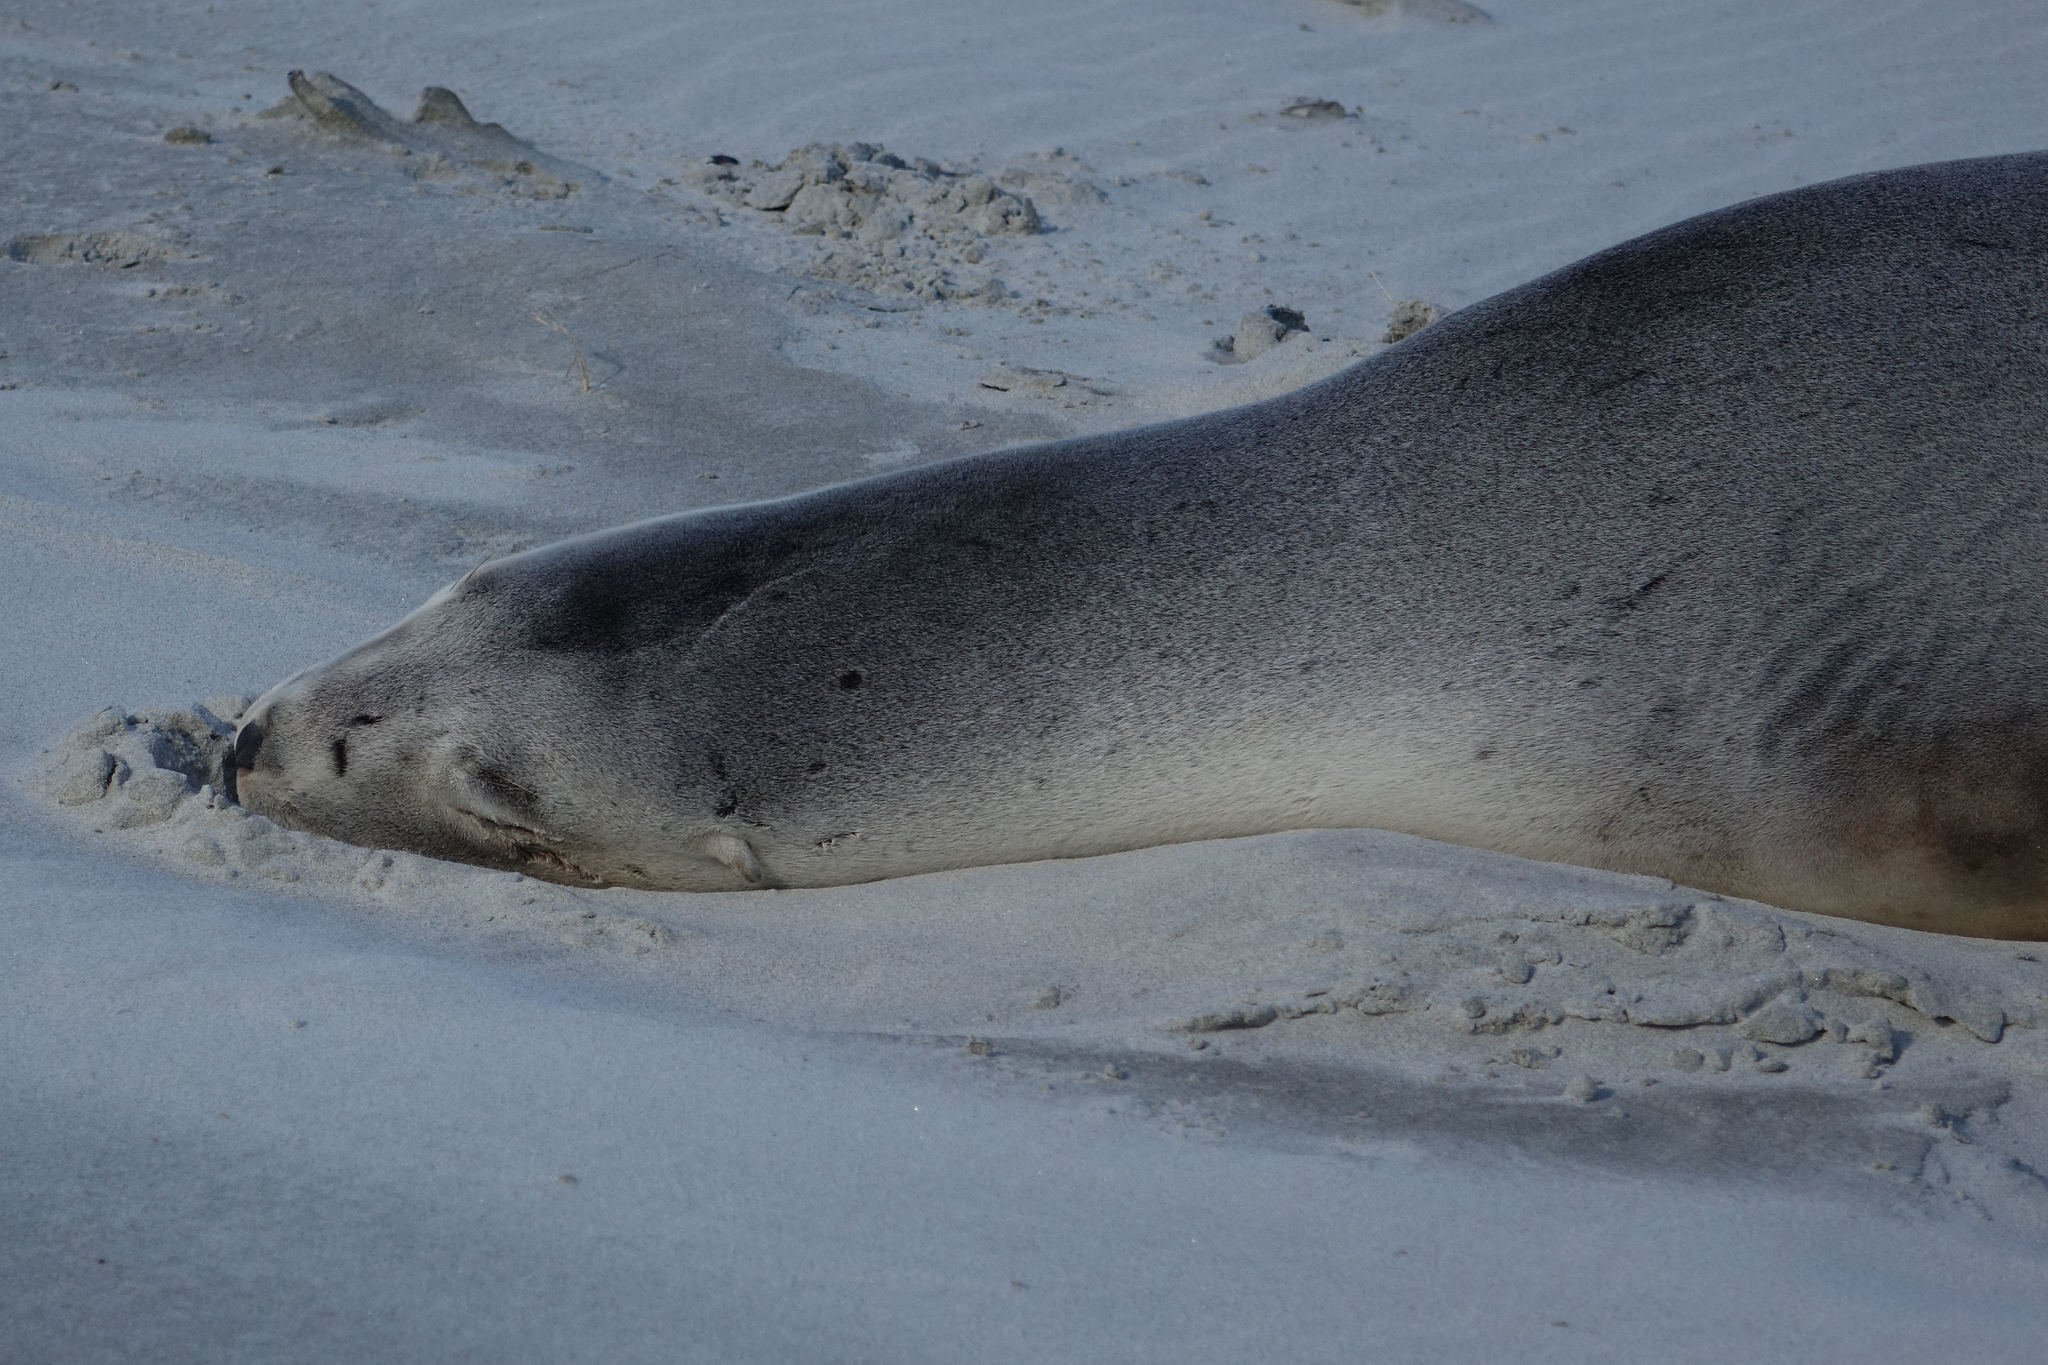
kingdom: Animalia
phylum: Chordata
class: Mammalia
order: Carnivora
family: Otariidae
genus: Phocarctos
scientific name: Phocarctos hookeri
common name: New zealand sea lion
